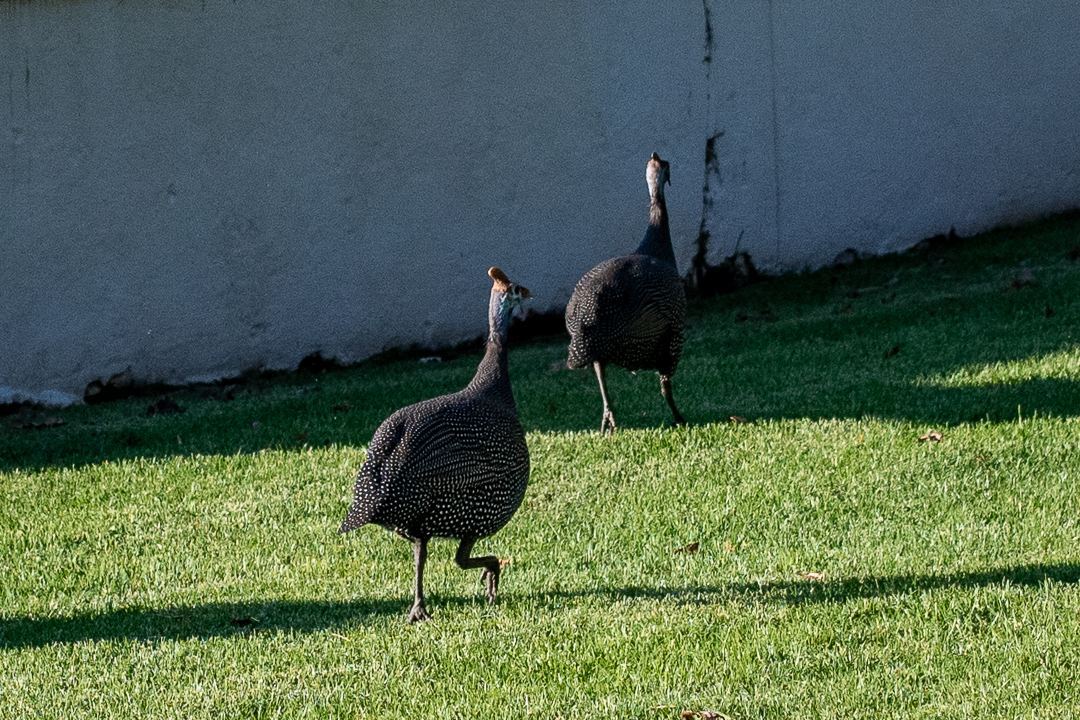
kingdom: Animalia
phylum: Chordata
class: Aves
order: Galliformes
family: Numididae
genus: Numida
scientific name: Numida meleagris
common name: Helmeted guineafowl
